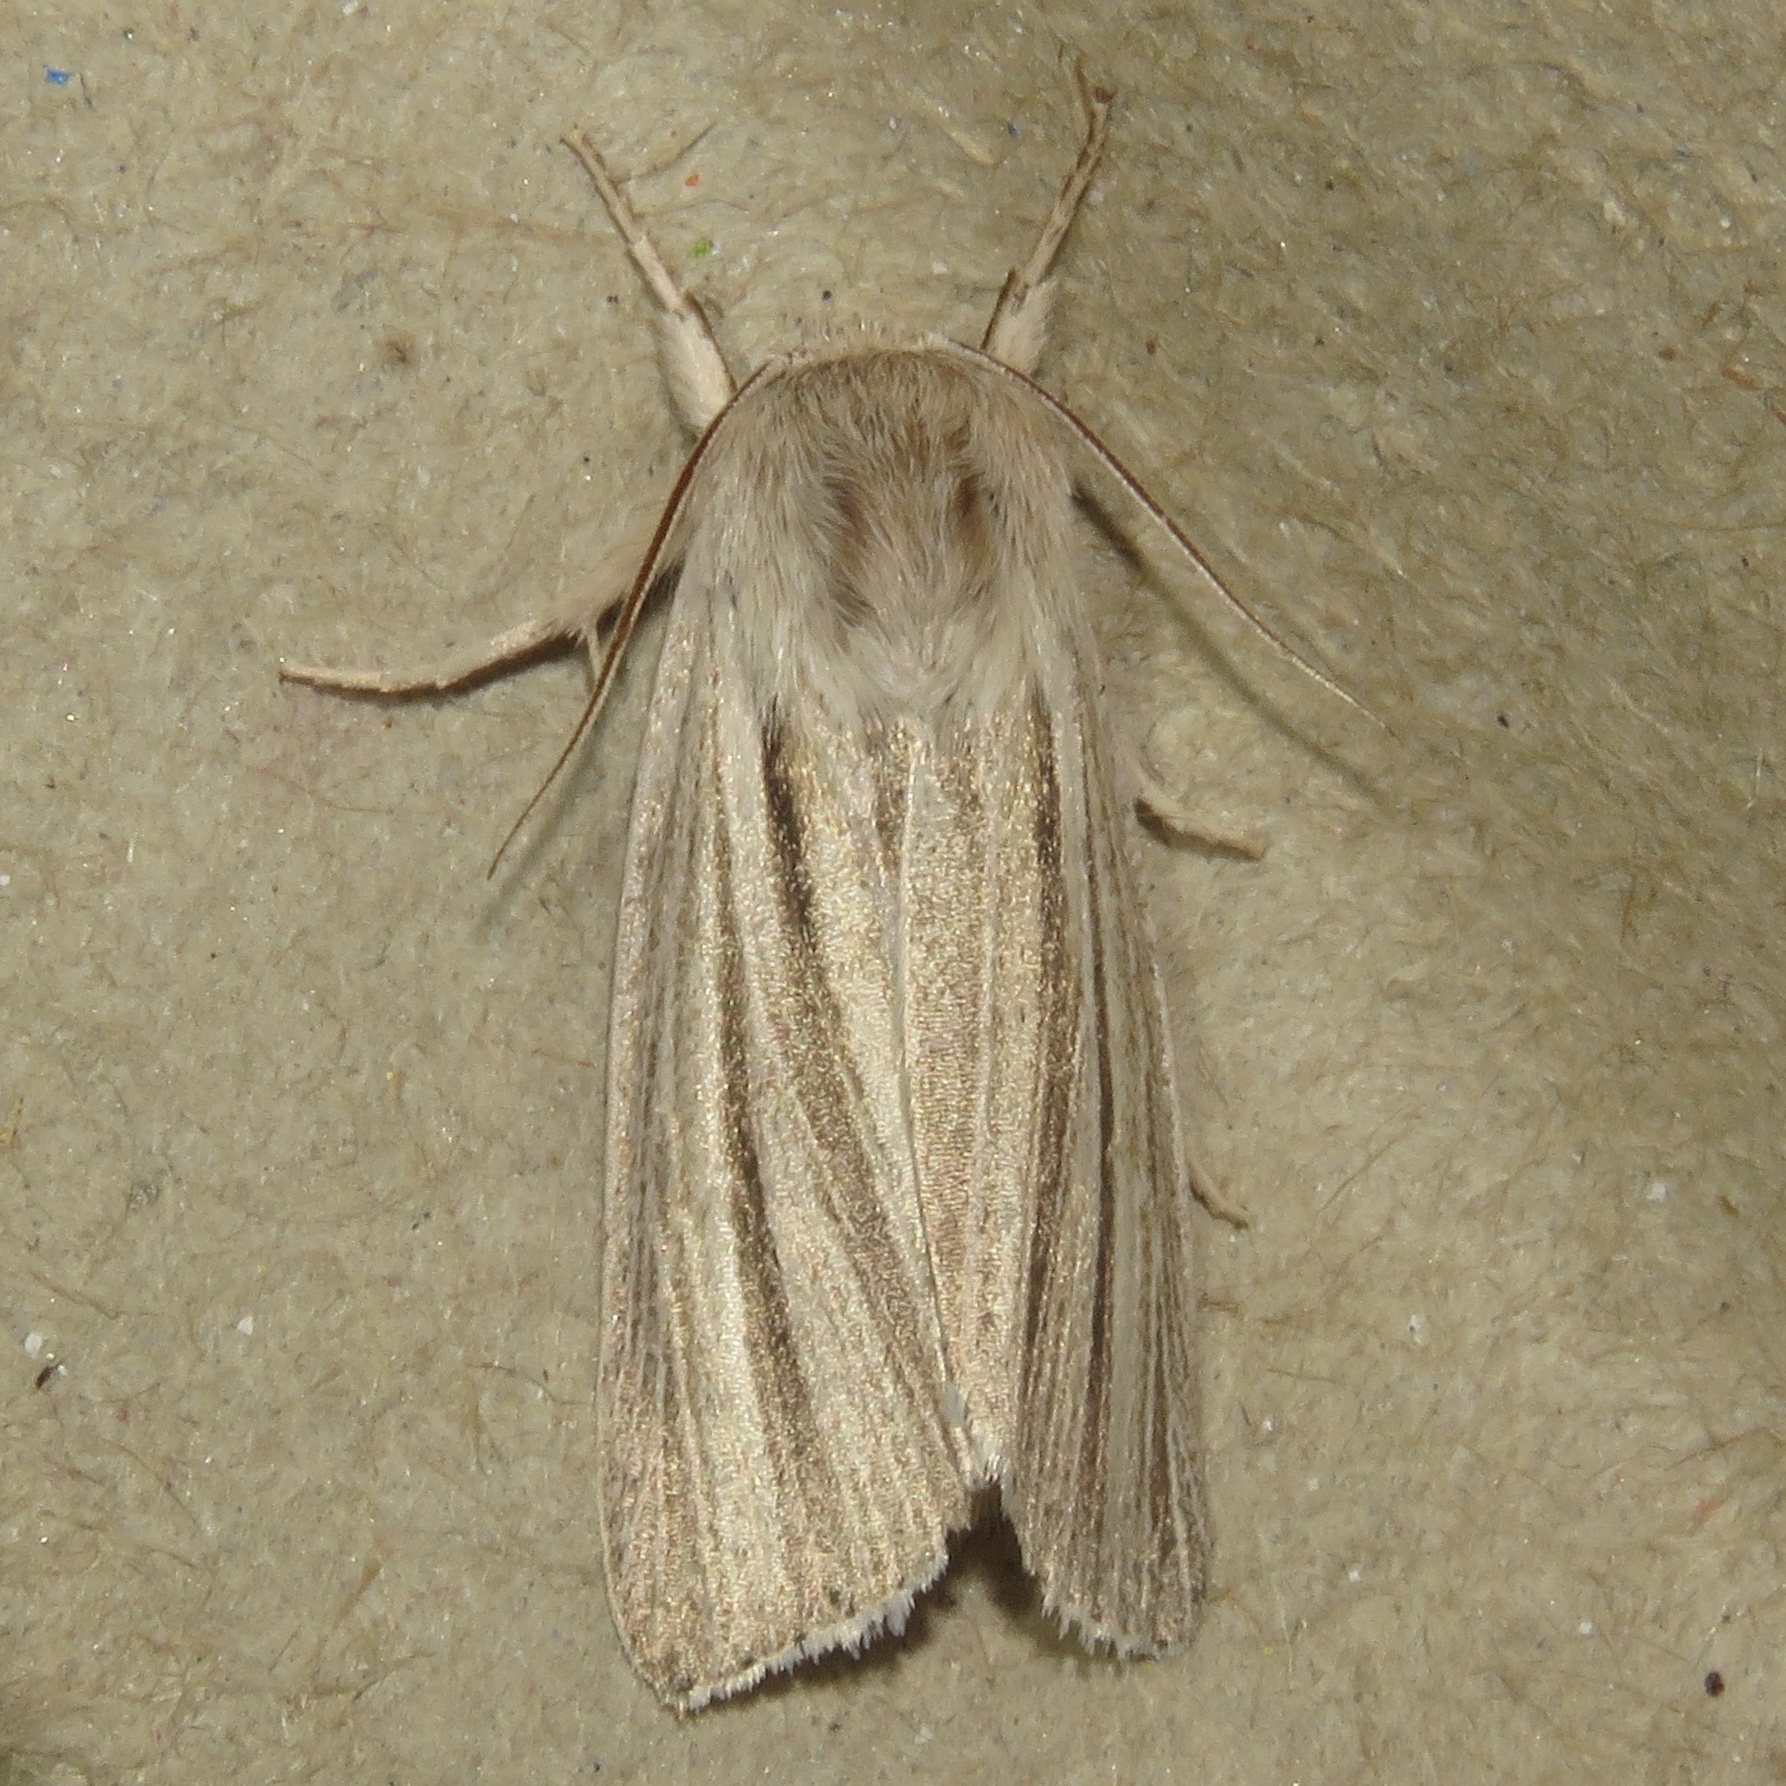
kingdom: Animalia
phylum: Arthropoda
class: Insecta
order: Lepidoptera
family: Noctuidae
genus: Acronicta
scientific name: Acronicta insularis
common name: Henry's marsh moth
